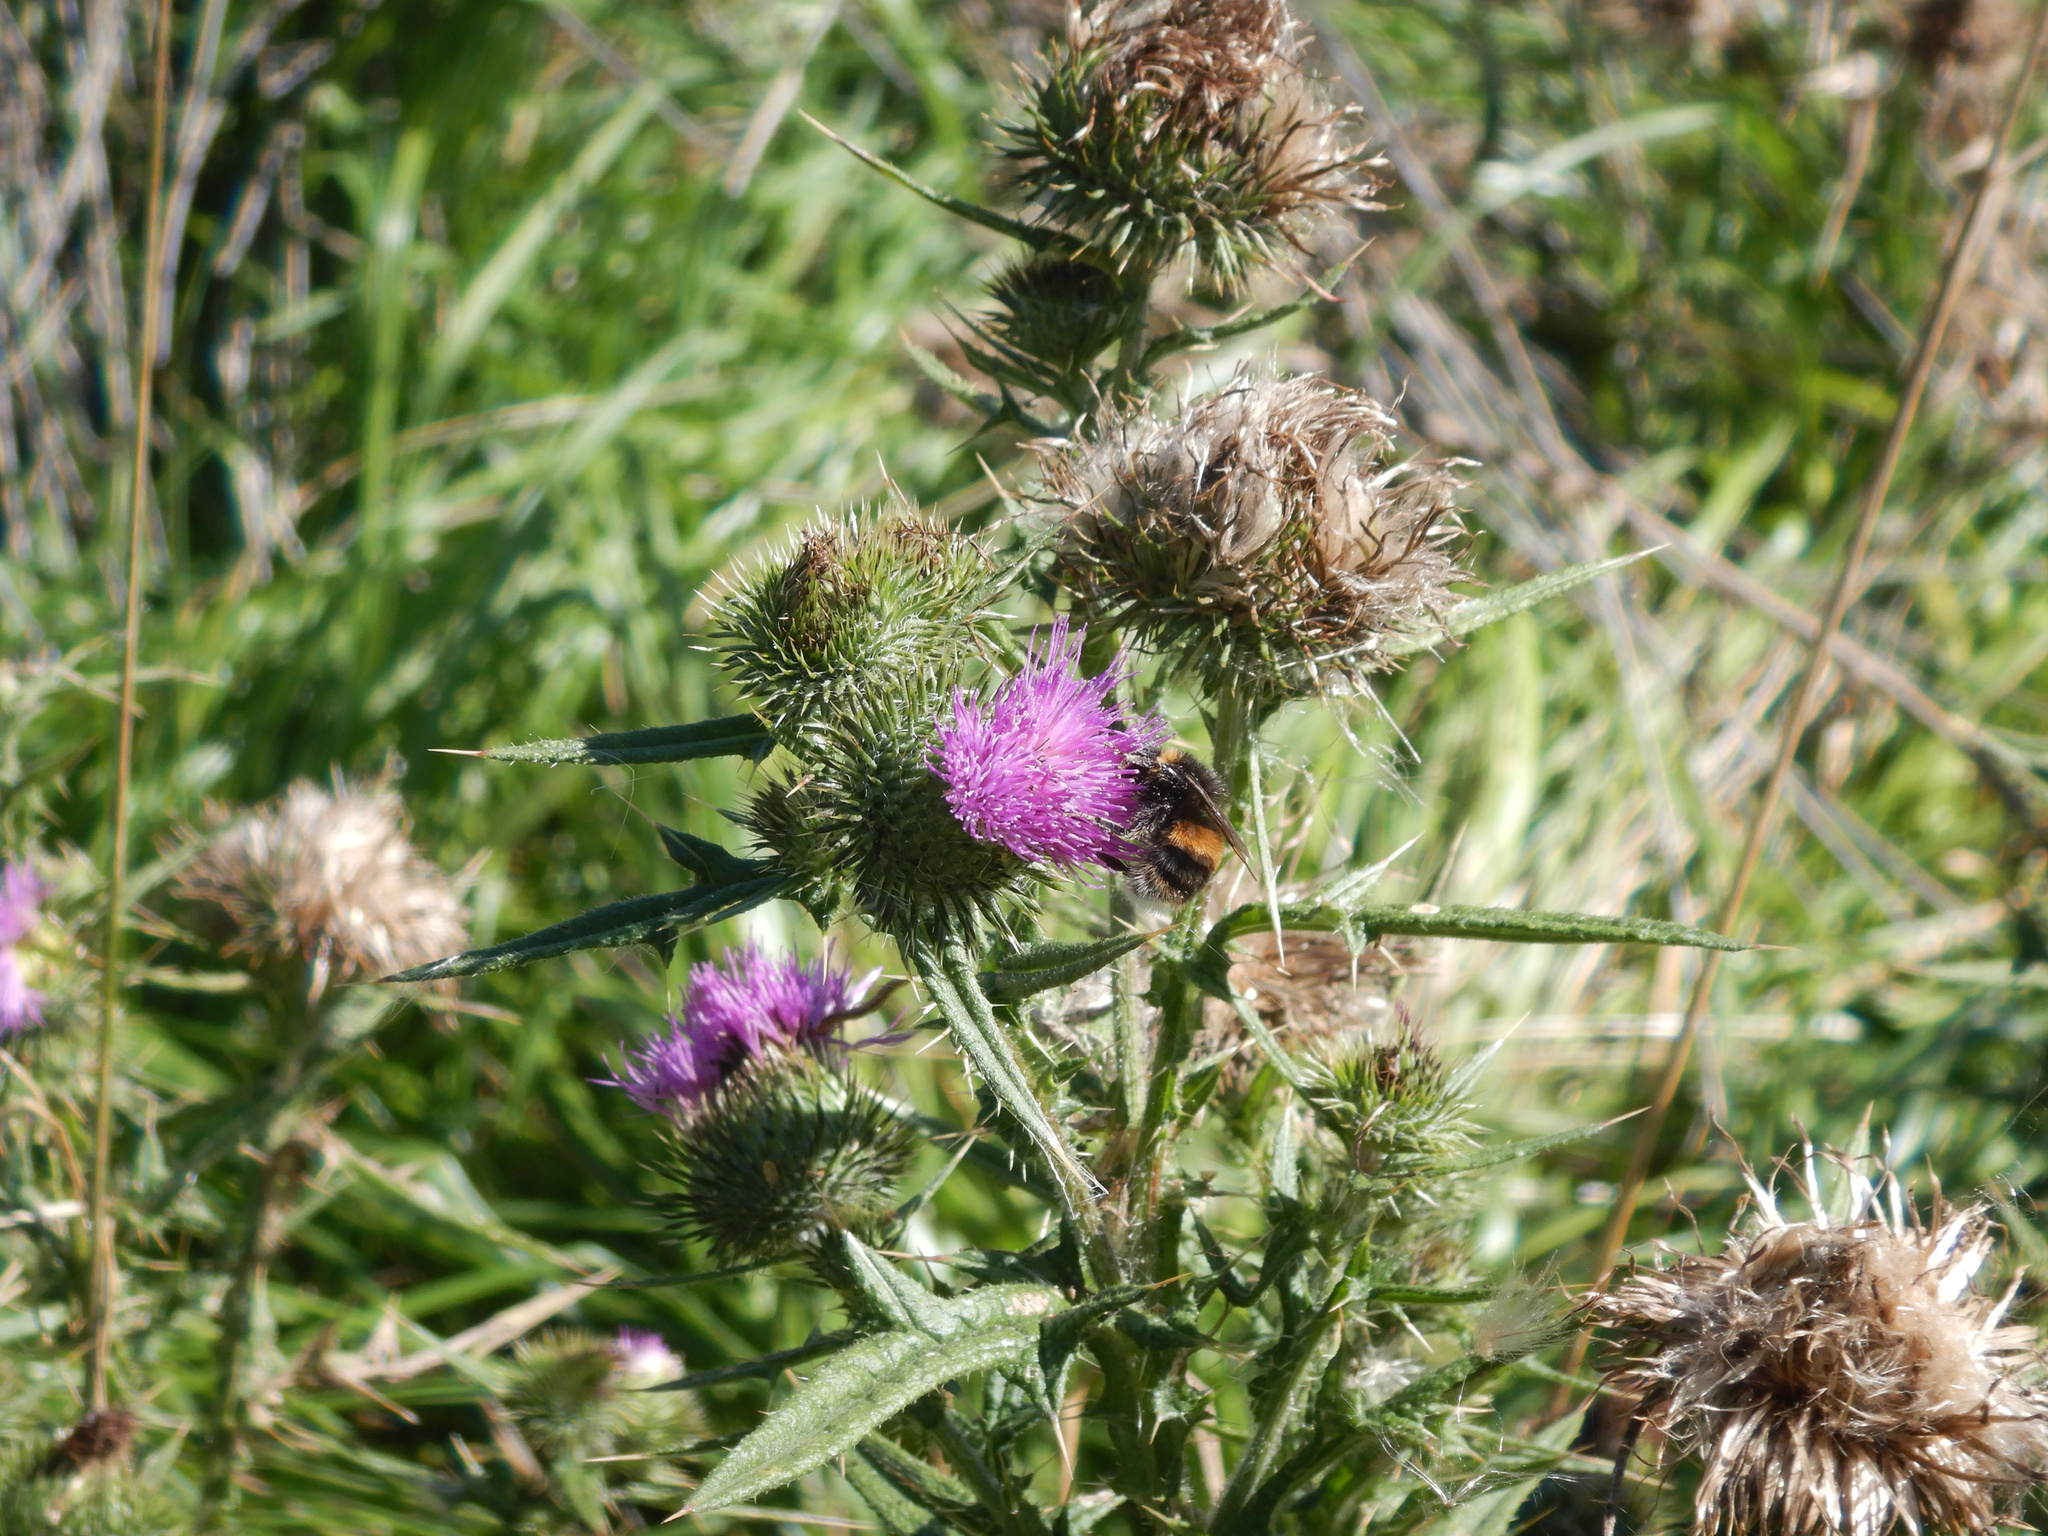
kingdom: Plantae
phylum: Tracheophyta
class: Magnoliopsida
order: Asterales
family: Asteraceae
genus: Cirsium
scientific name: Cirsium vulgare
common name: Bull thistle
